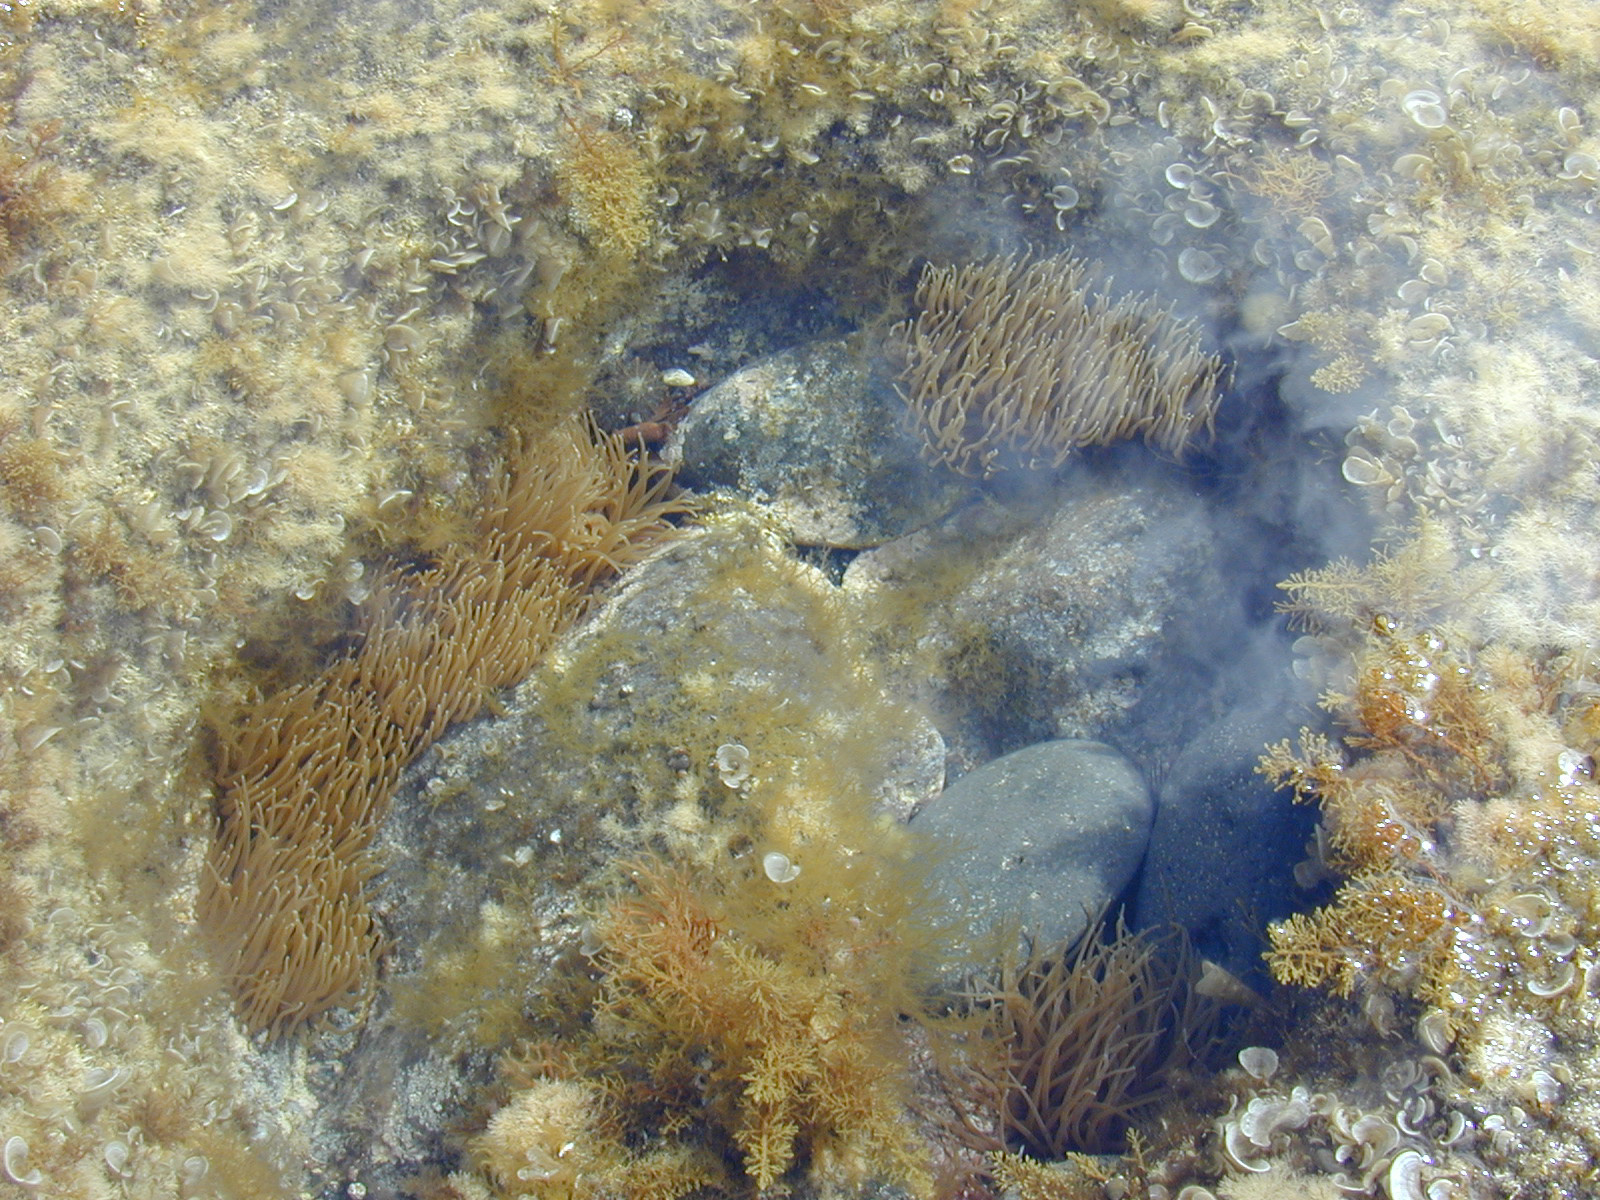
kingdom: Animalia
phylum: Cnidaria
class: Anthozoa
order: Actiniaria
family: Actiniidae
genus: Anemonia
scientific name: Anemonia viridis
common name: Snakelocks anemone
